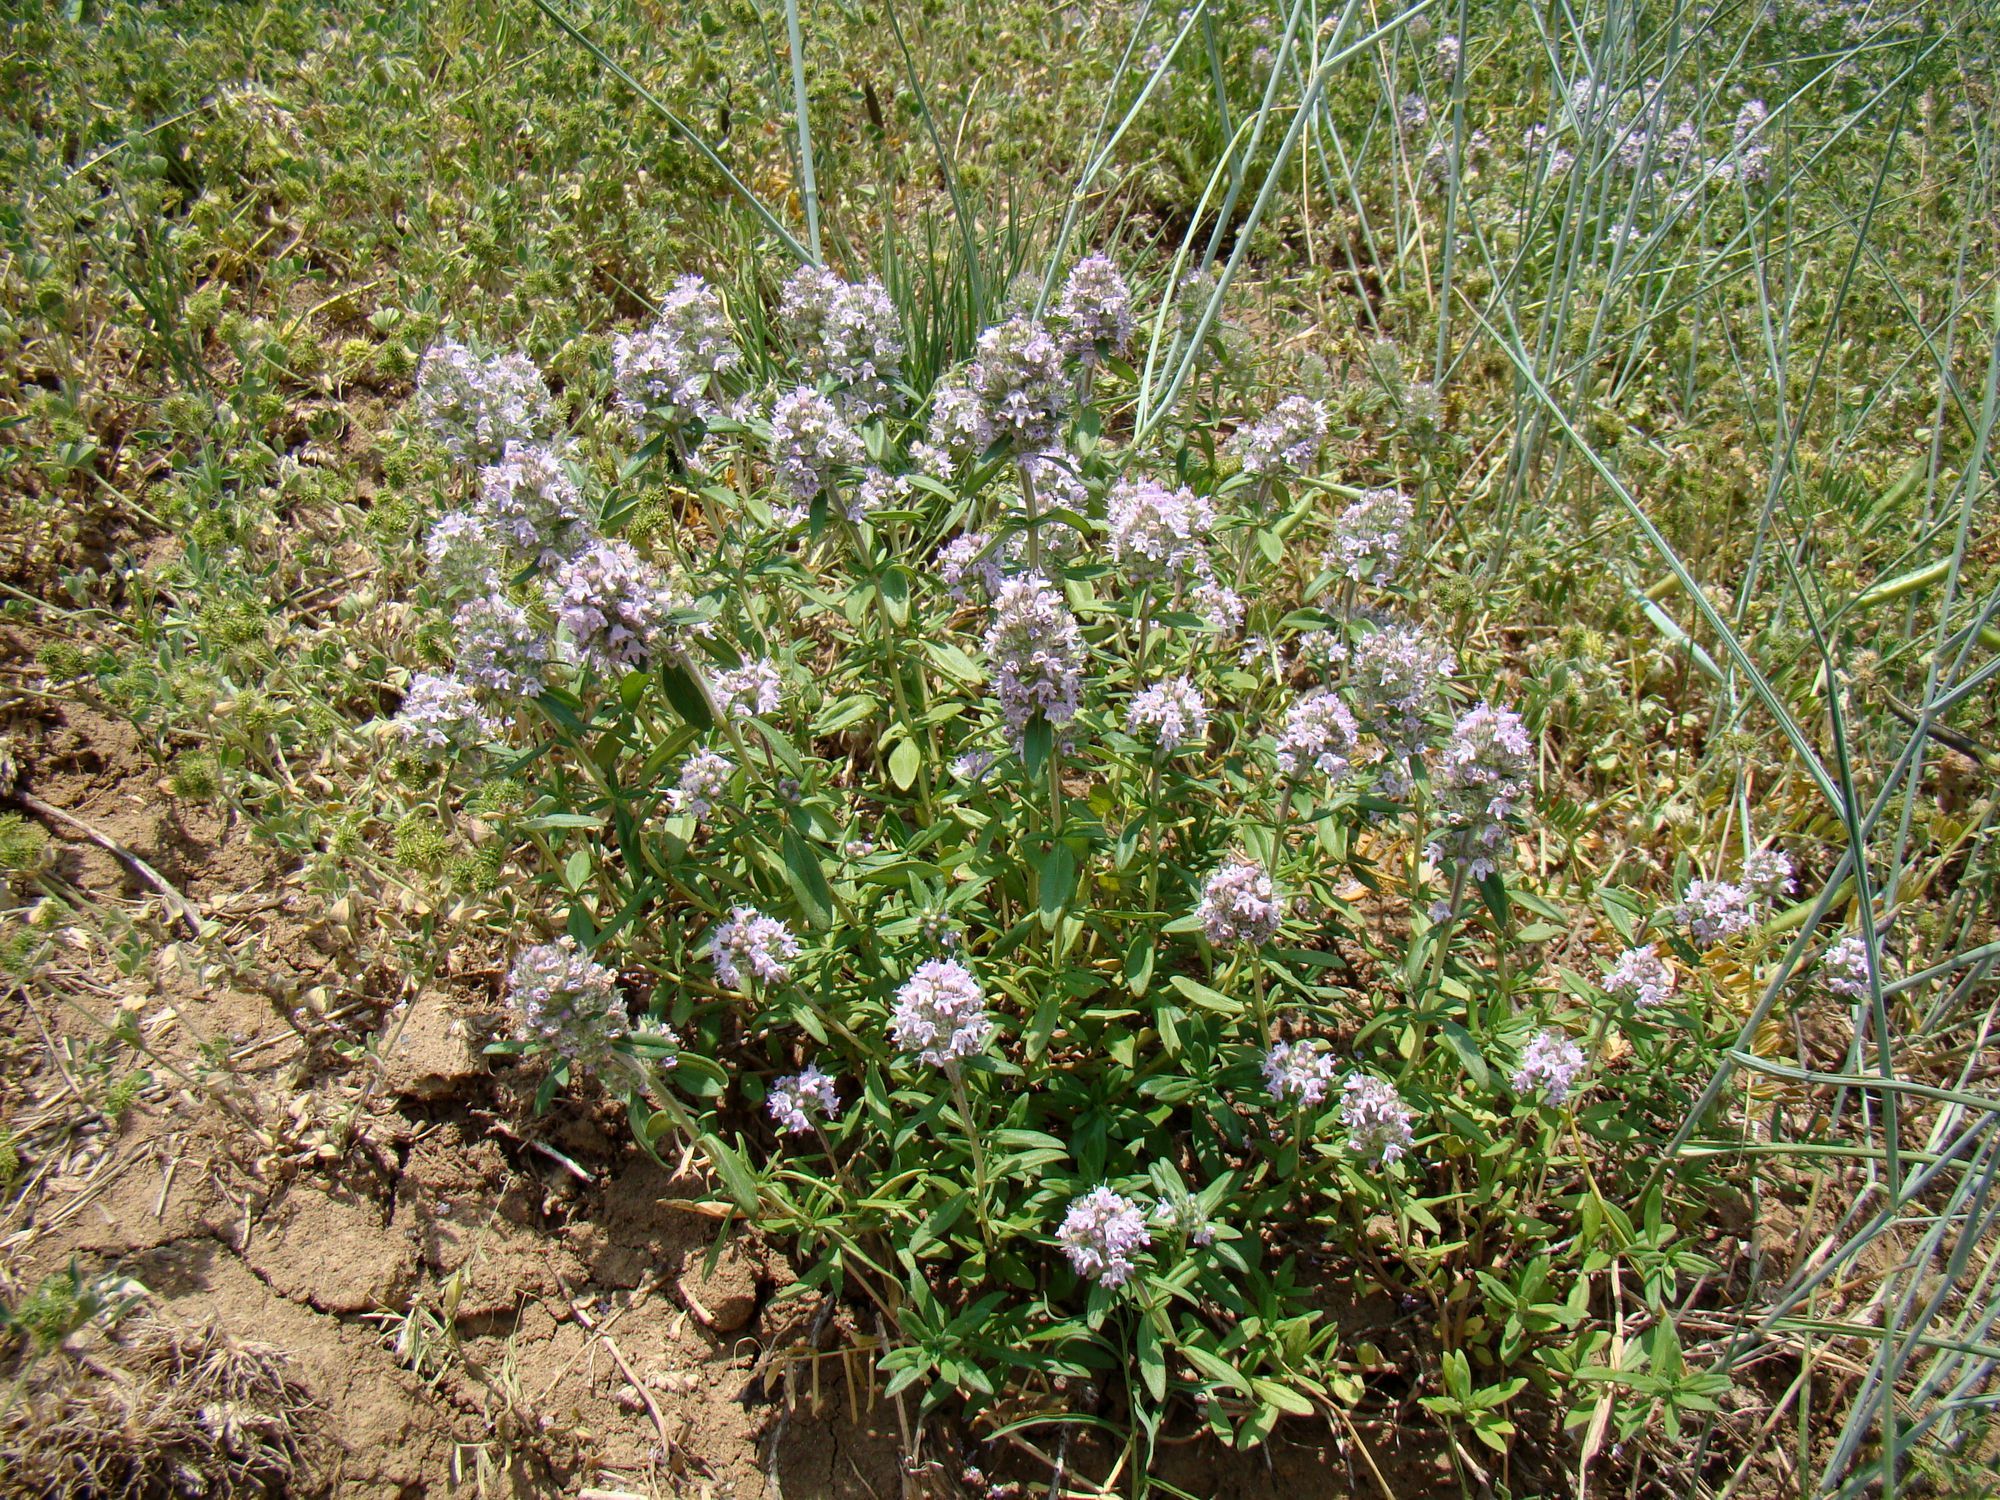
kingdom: Plantae
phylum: Tracheophyta
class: Magnoliopsida
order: Lamiales
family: Lamiaceae
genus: Thymus
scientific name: Thymus pannonicus
